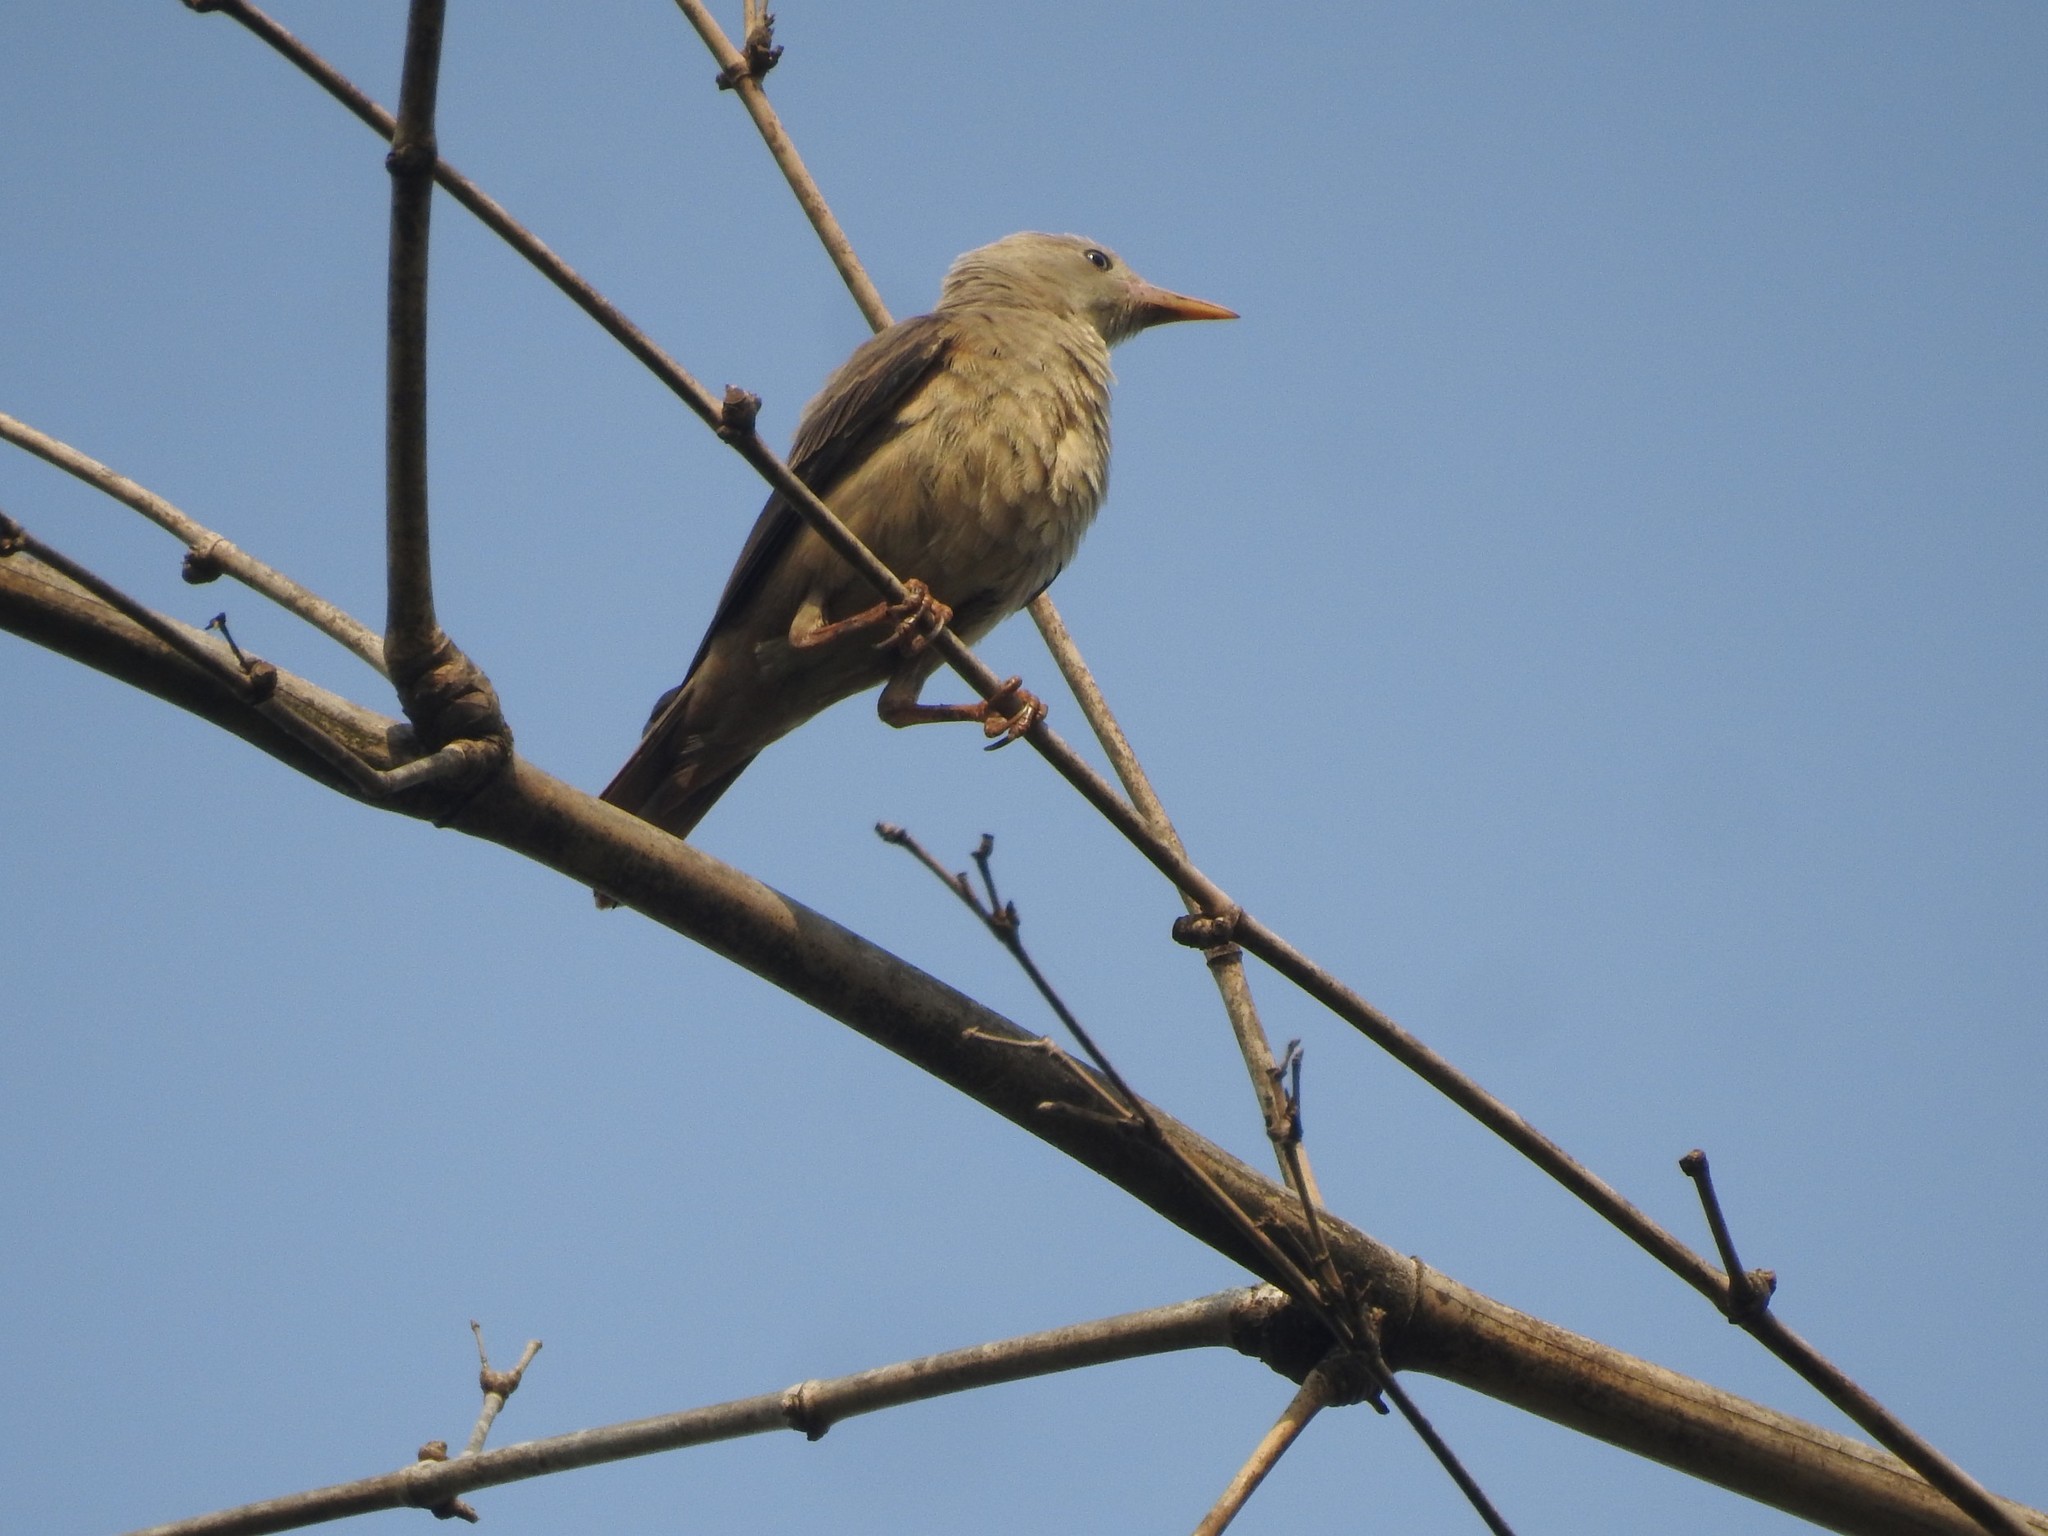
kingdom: Animalia
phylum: Chordata
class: Aves
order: Passeriformes
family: Sturnidae
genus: Sturnia
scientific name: Sturnia malabarica
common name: Chestnut-tailed starling
